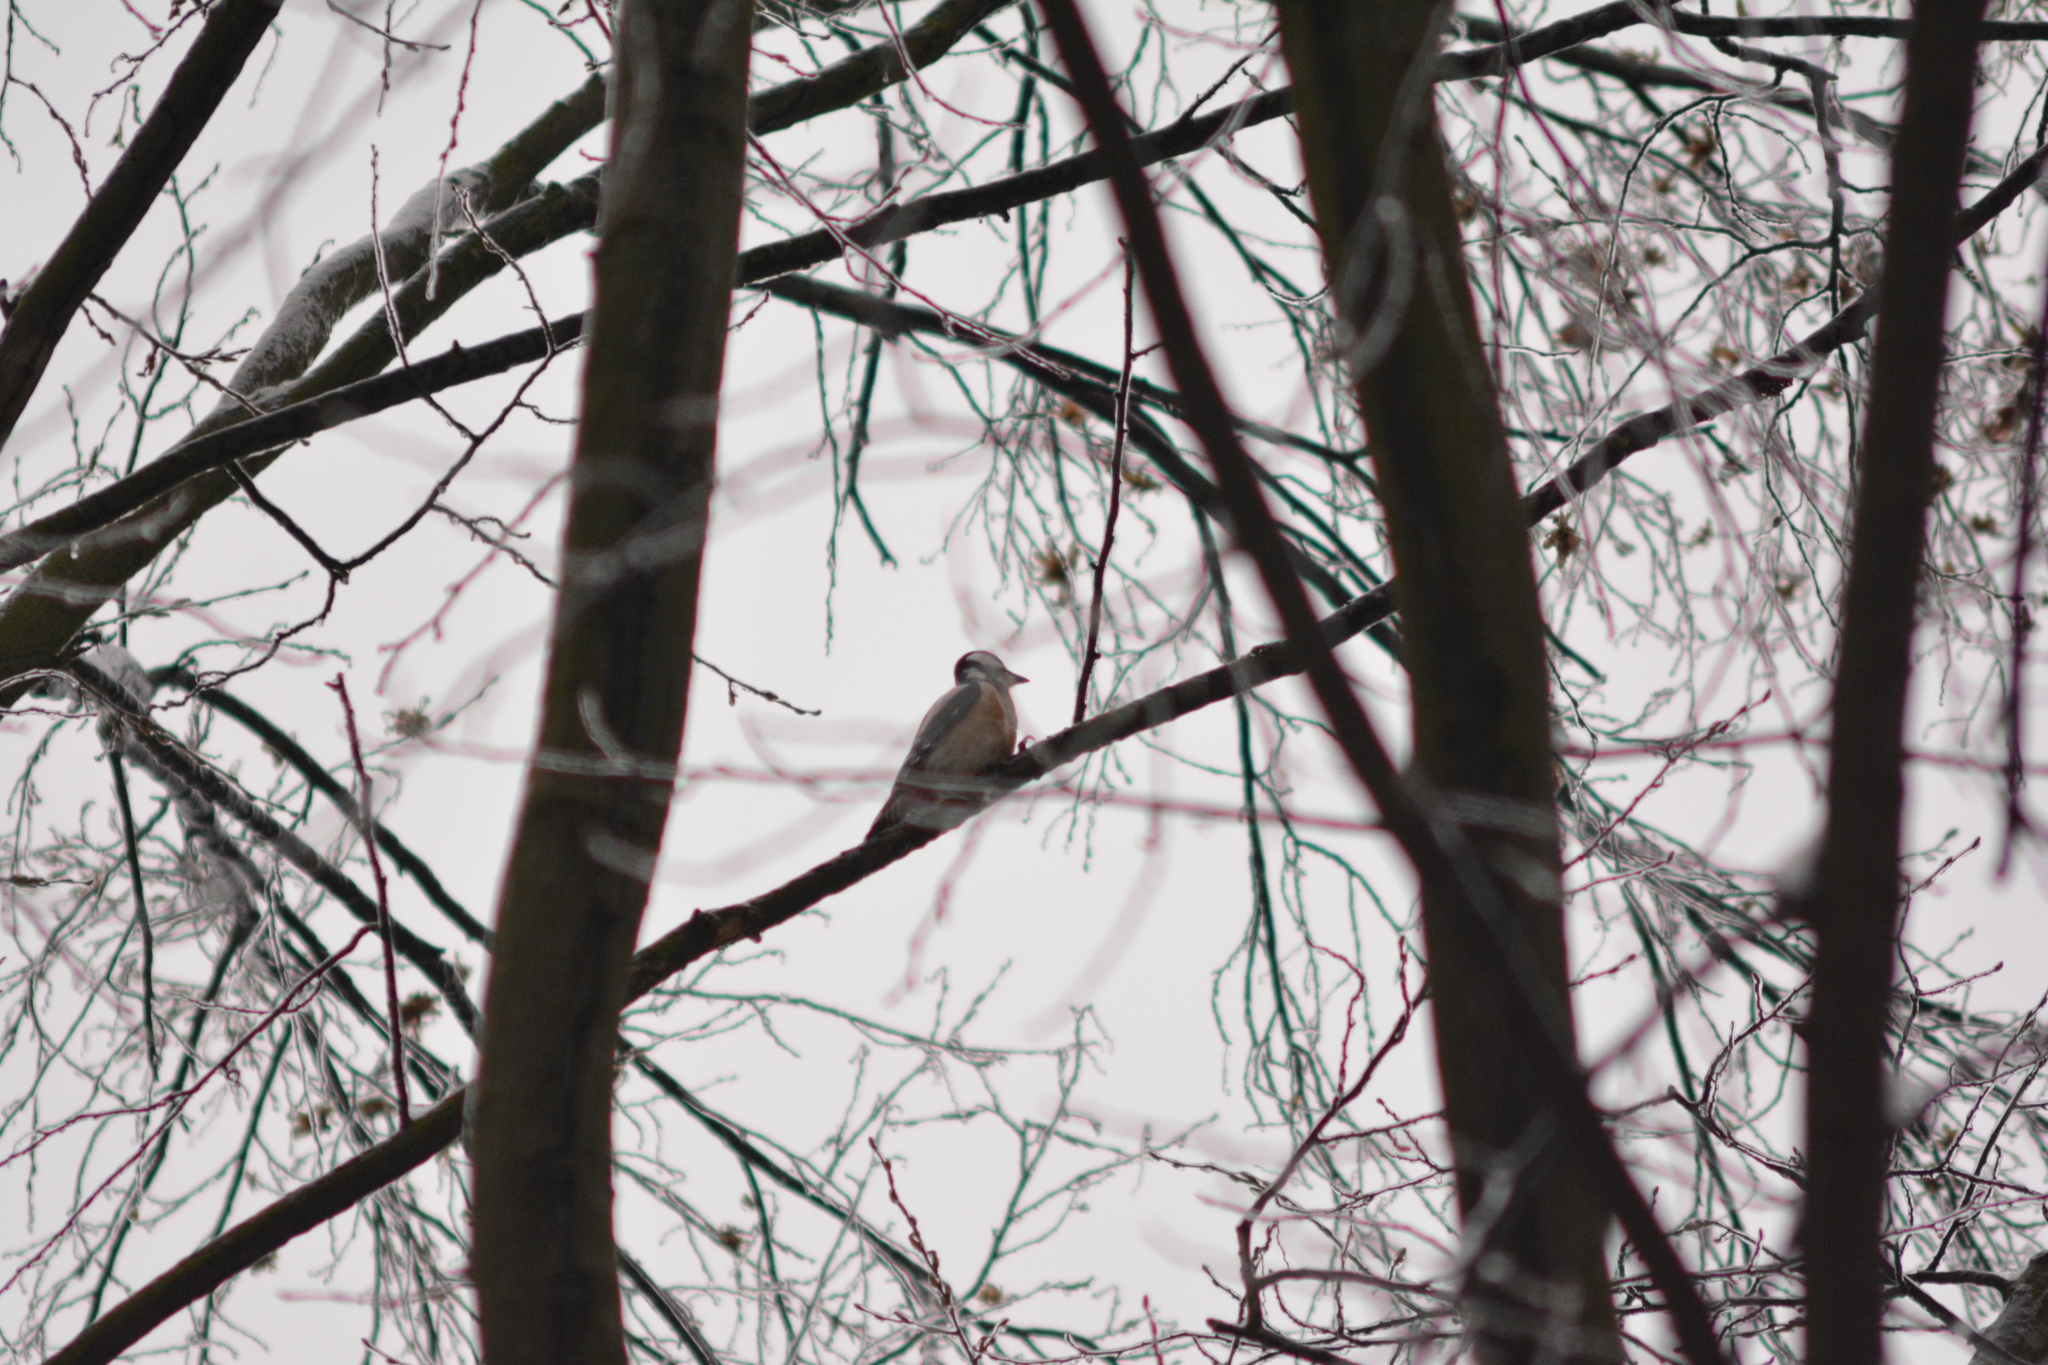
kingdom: Animalia
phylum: Chordata
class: Aves
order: Piciformes
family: Picidae
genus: Dendrocopos
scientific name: Dendrocopos major
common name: Great spotted woodpecker
